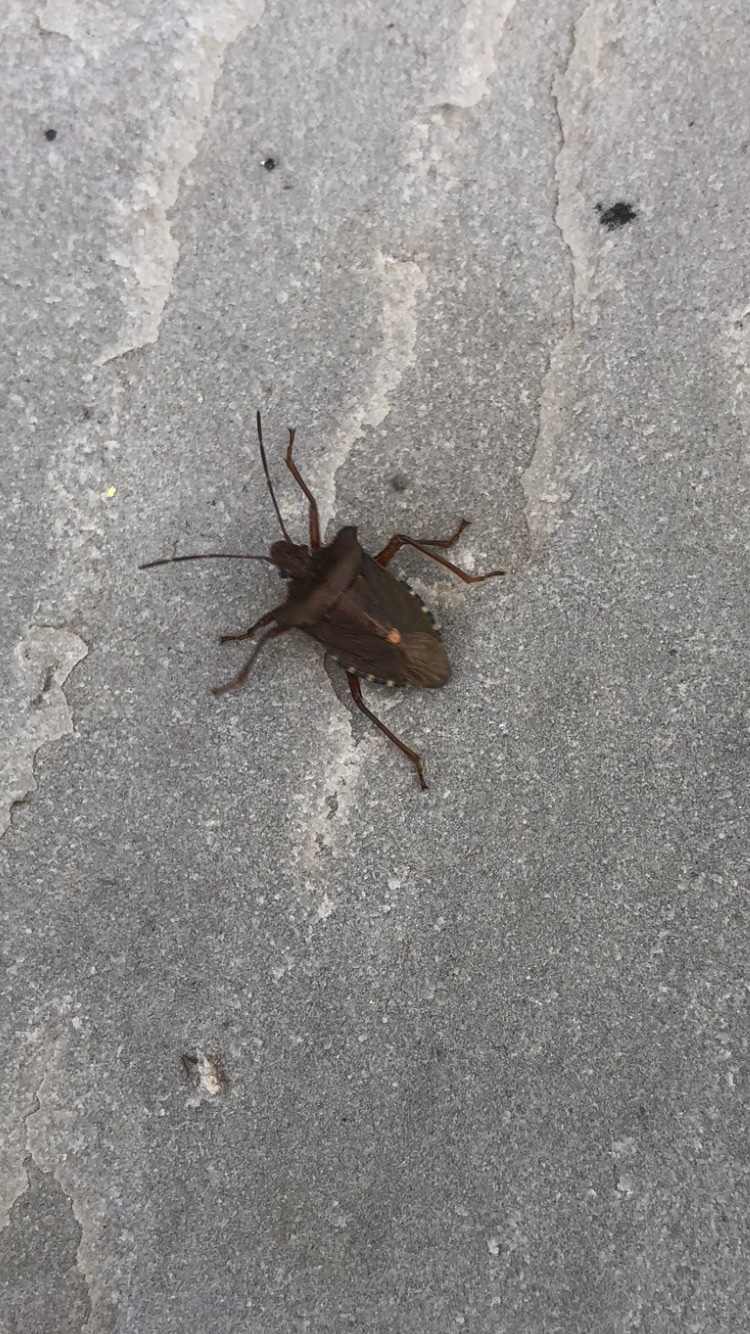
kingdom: Animalia
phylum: Arthropoda
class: Insecta
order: Hemiptera
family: Pentatomidae
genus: Pentatoma
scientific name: Pentatoma rufipes
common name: Forest bug
